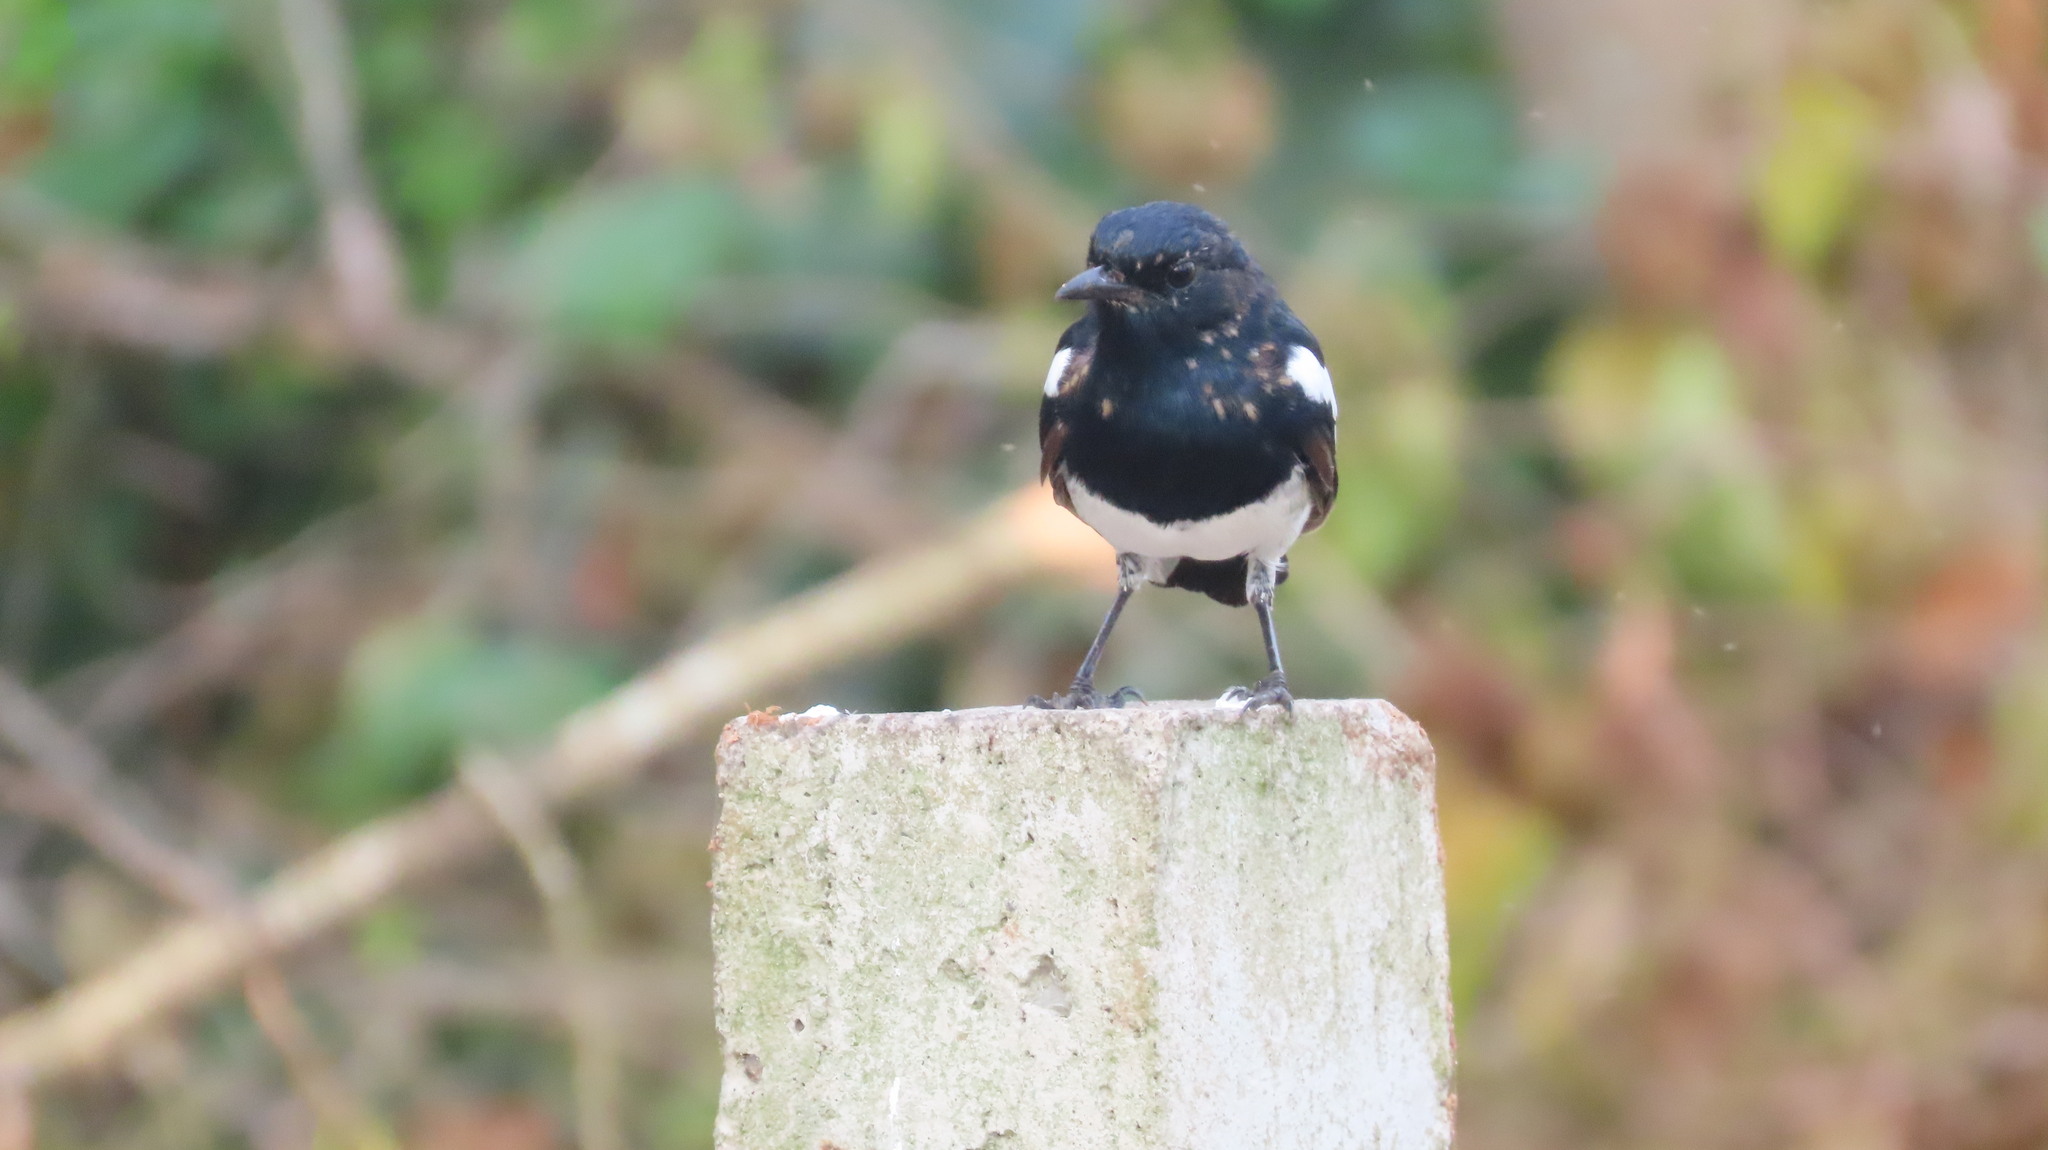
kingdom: Animalia
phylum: Chordata
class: Aves
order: Passeriformes
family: Muscicapidae
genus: Copsychus
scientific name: Copsychus saularis
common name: Oriental magpie-robin
